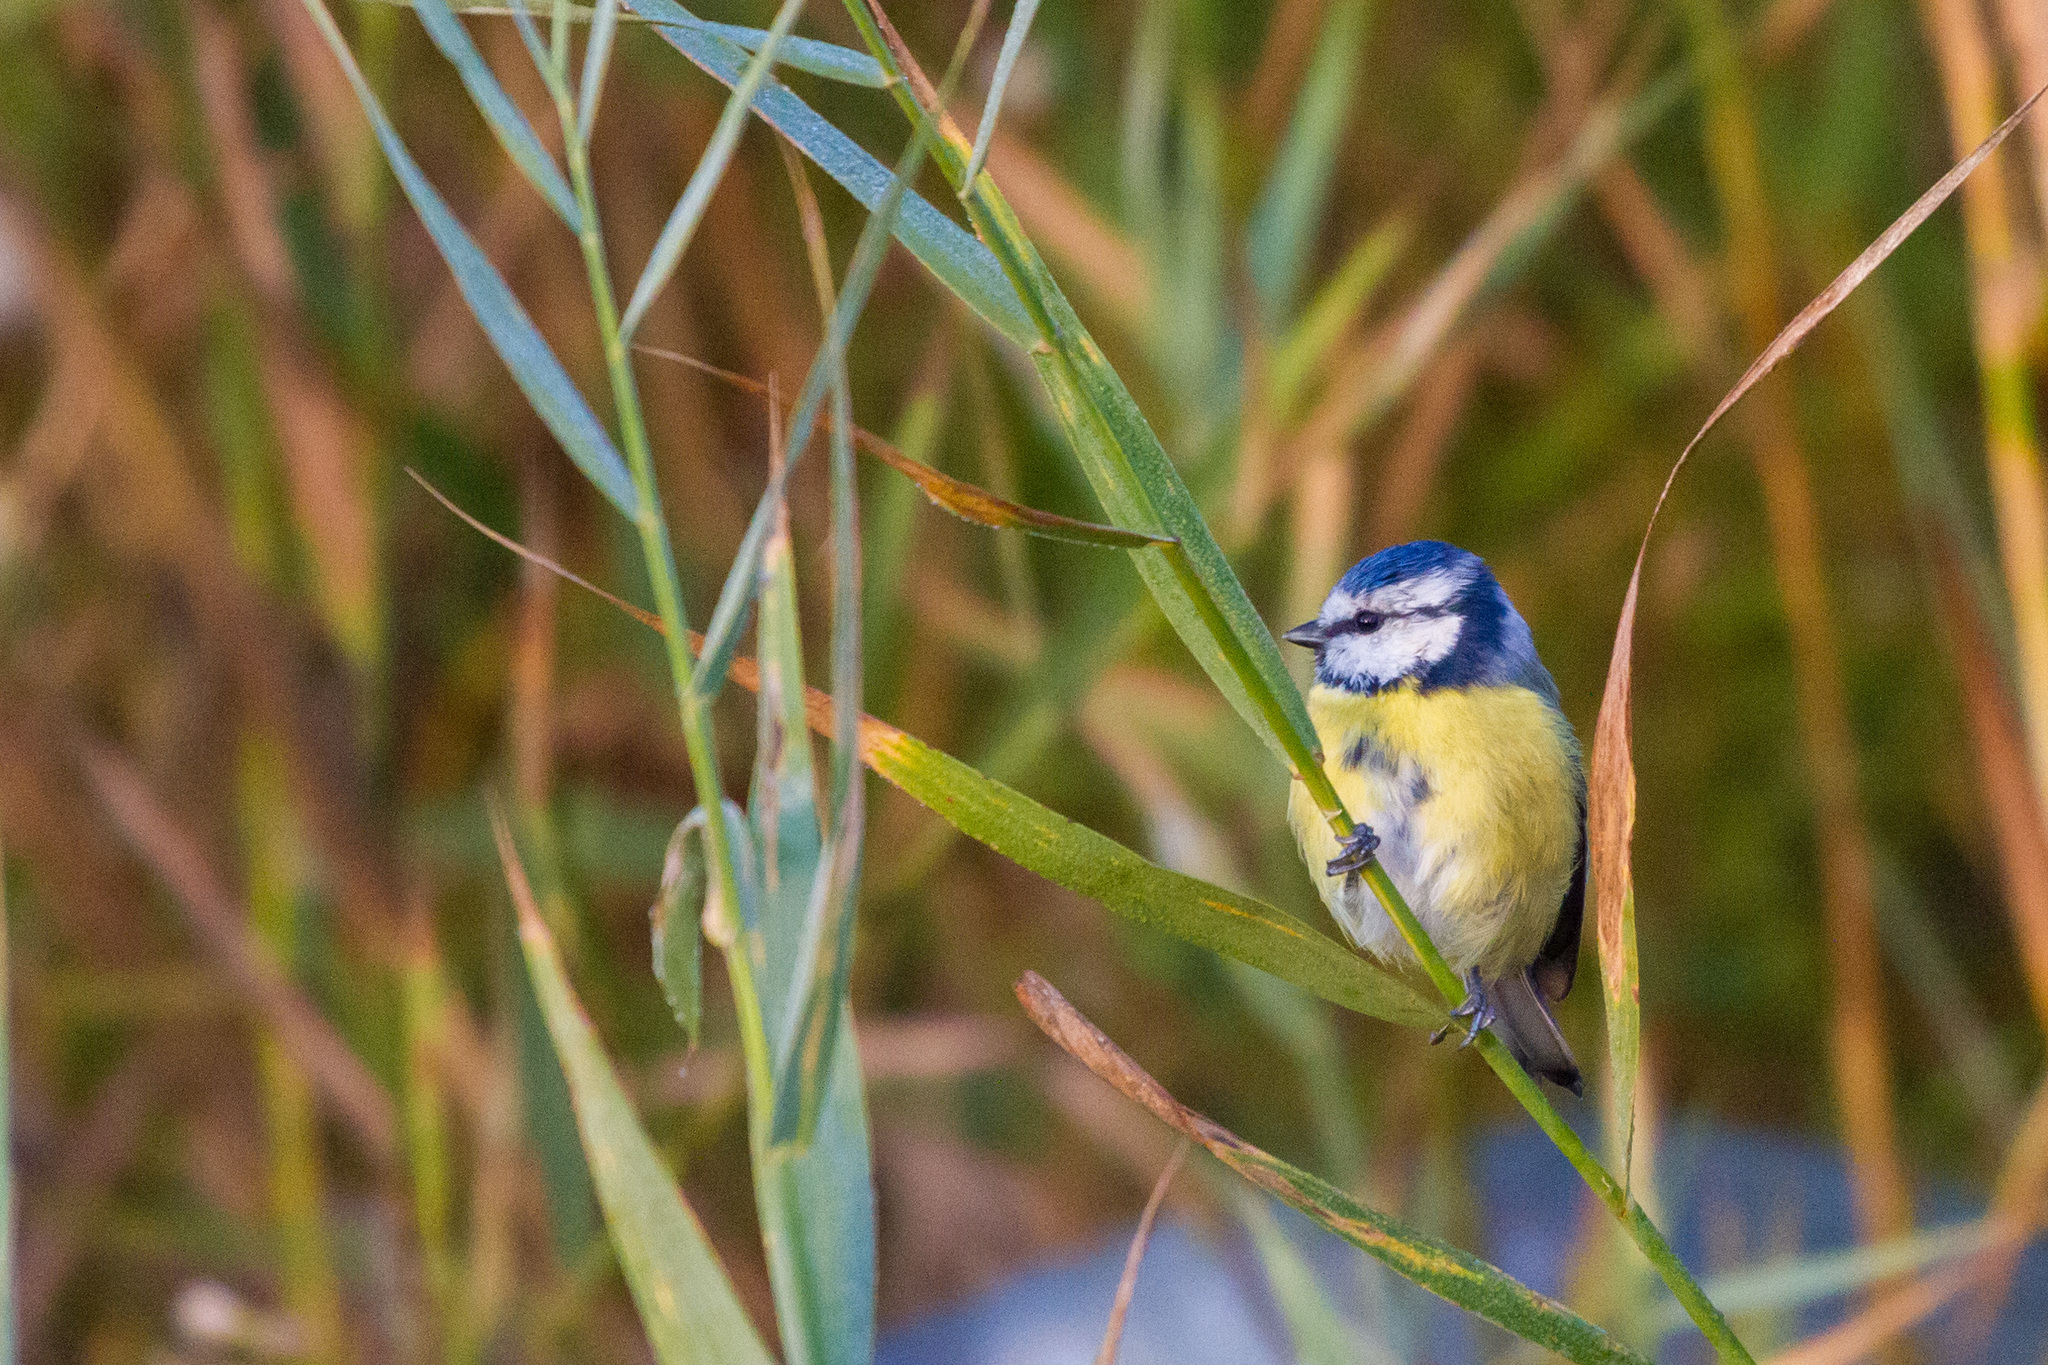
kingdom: Animalia
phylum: Chordata
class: Aves
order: Passeriformes
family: Paridae
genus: Cyanistes
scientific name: Cyanistes caeruleus
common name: Eurasian blue tit
